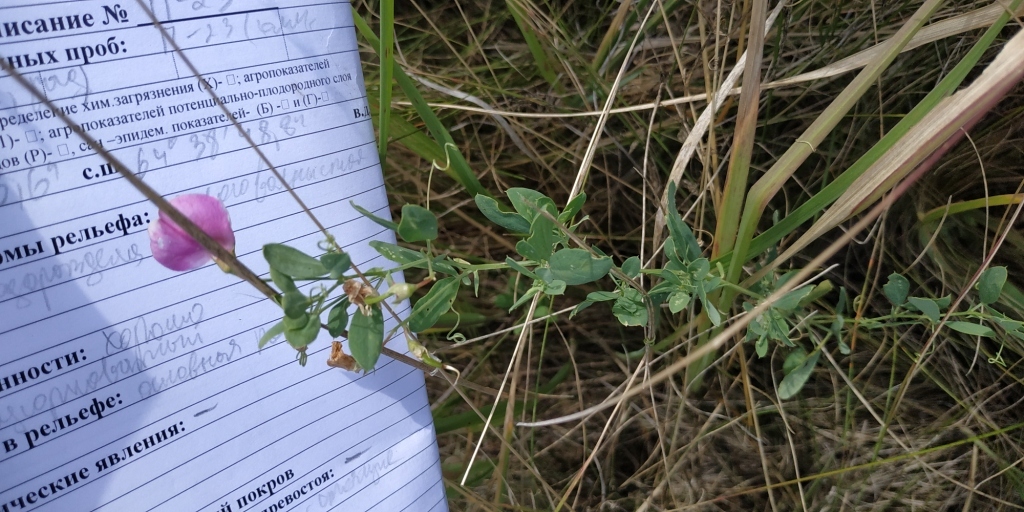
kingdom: Plantae
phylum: Tracheophyta
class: Magnoliopsida
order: Fabales
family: Fabaceae
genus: Lathyrus
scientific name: Lathyrus tuberosus
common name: Tuberous pea
